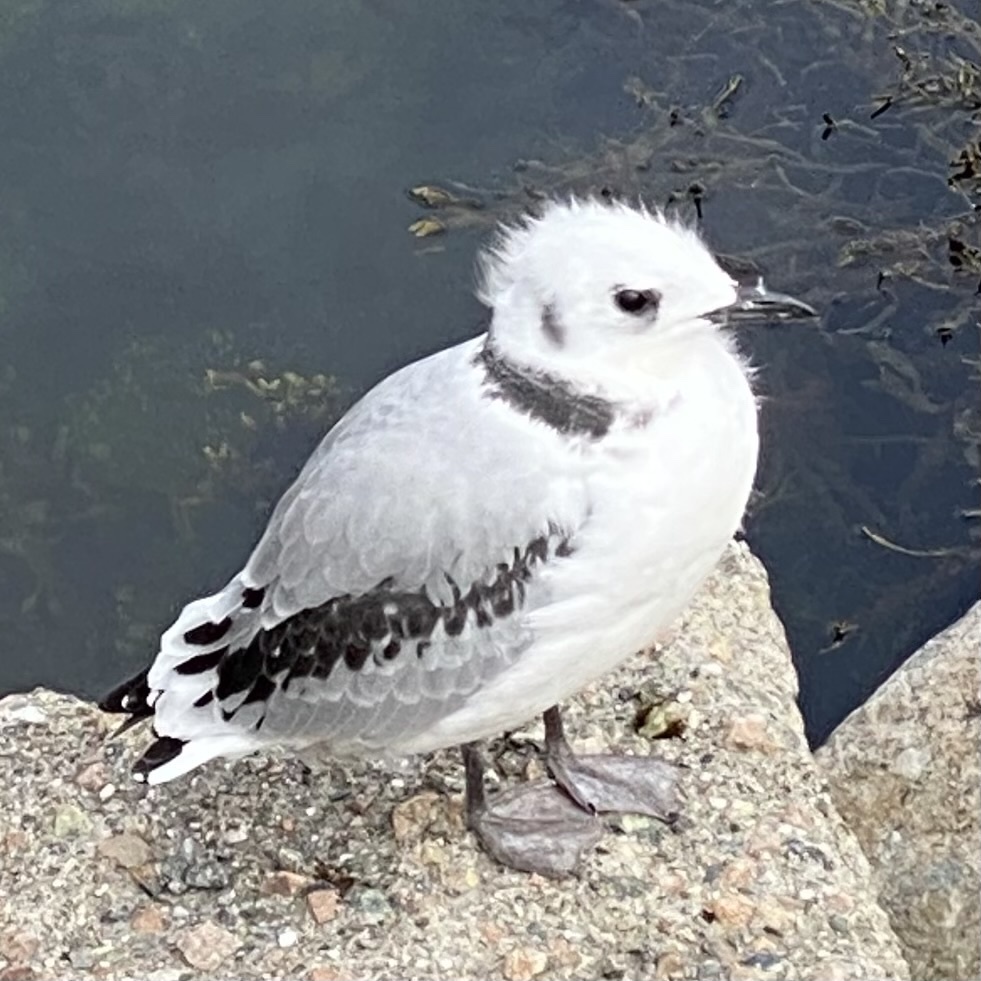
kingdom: Animalia
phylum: Chordata
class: Aves
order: Charadriiformes
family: Laridae
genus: Rissa
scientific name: Rissa tridactyla
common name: Black-legged kittiwake
